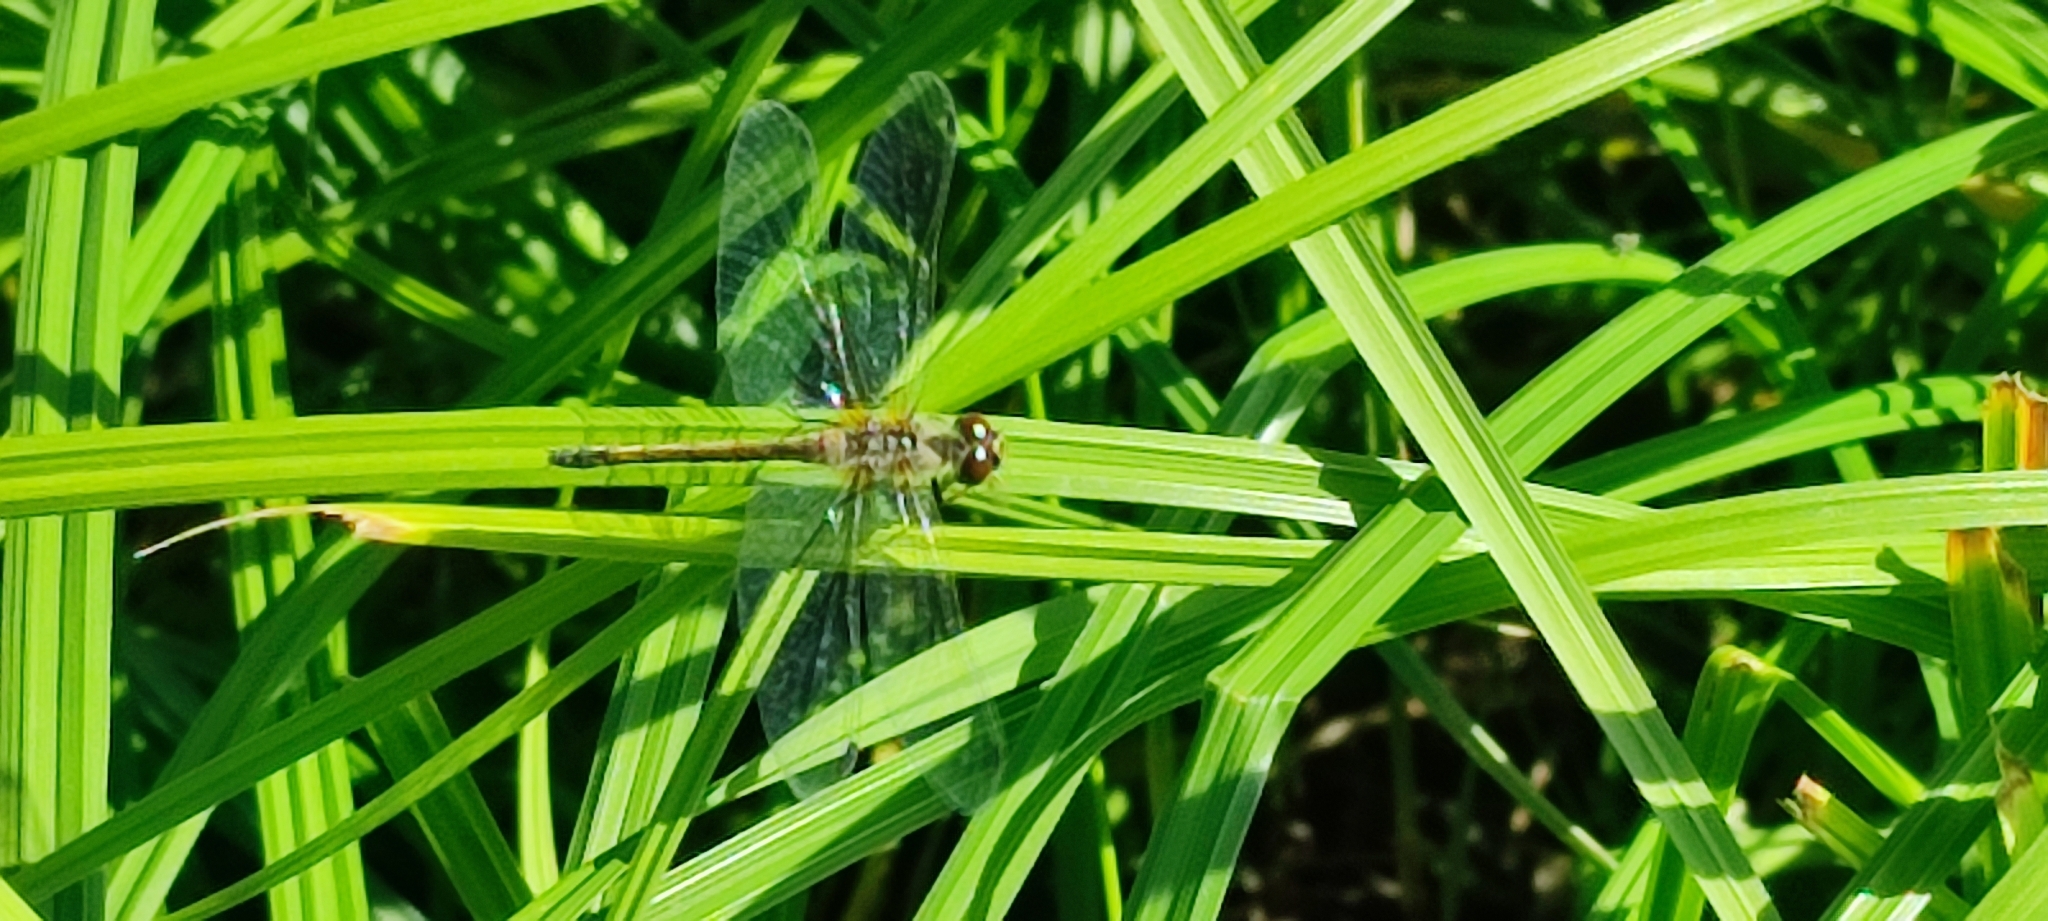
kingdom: Animalia
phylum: Arthropoda
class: Insecta
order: Odonata
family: Libellulidae
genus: Sympetrum
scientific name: Sympetrum danae
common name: Black darter
